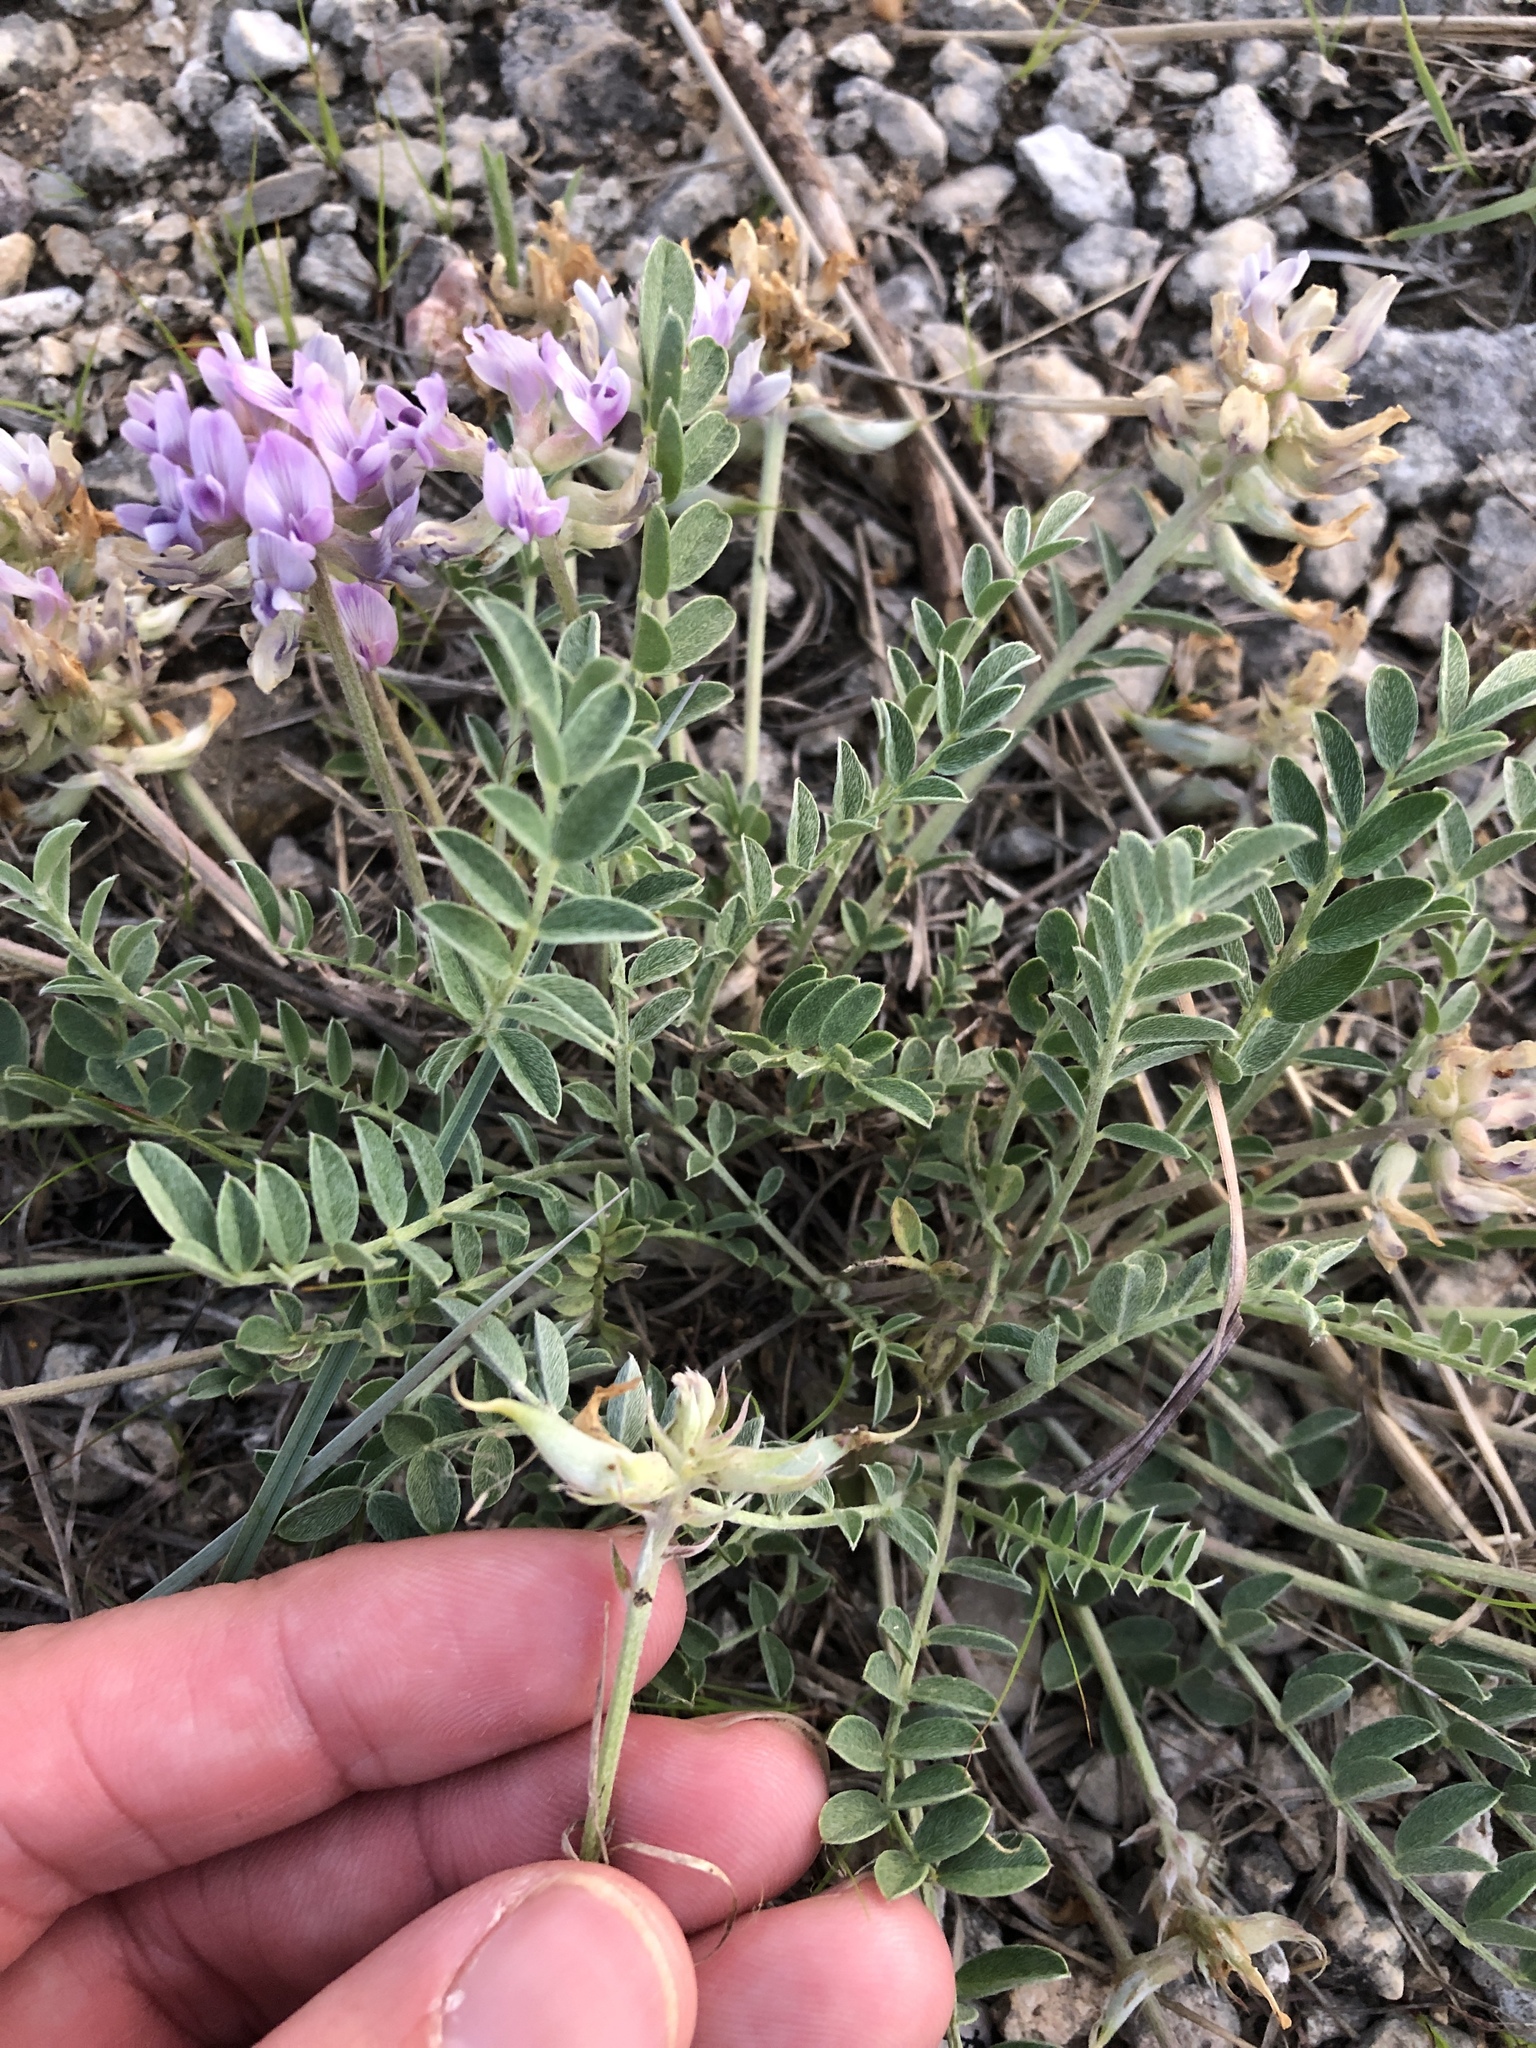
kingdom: Plantae
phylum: Tracheophyta
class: Magnoliopsida
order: Fabales
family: Fabaceae
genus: Astragalus
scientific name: Astragalus lotiflorus
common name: Lotus milk-vetch
